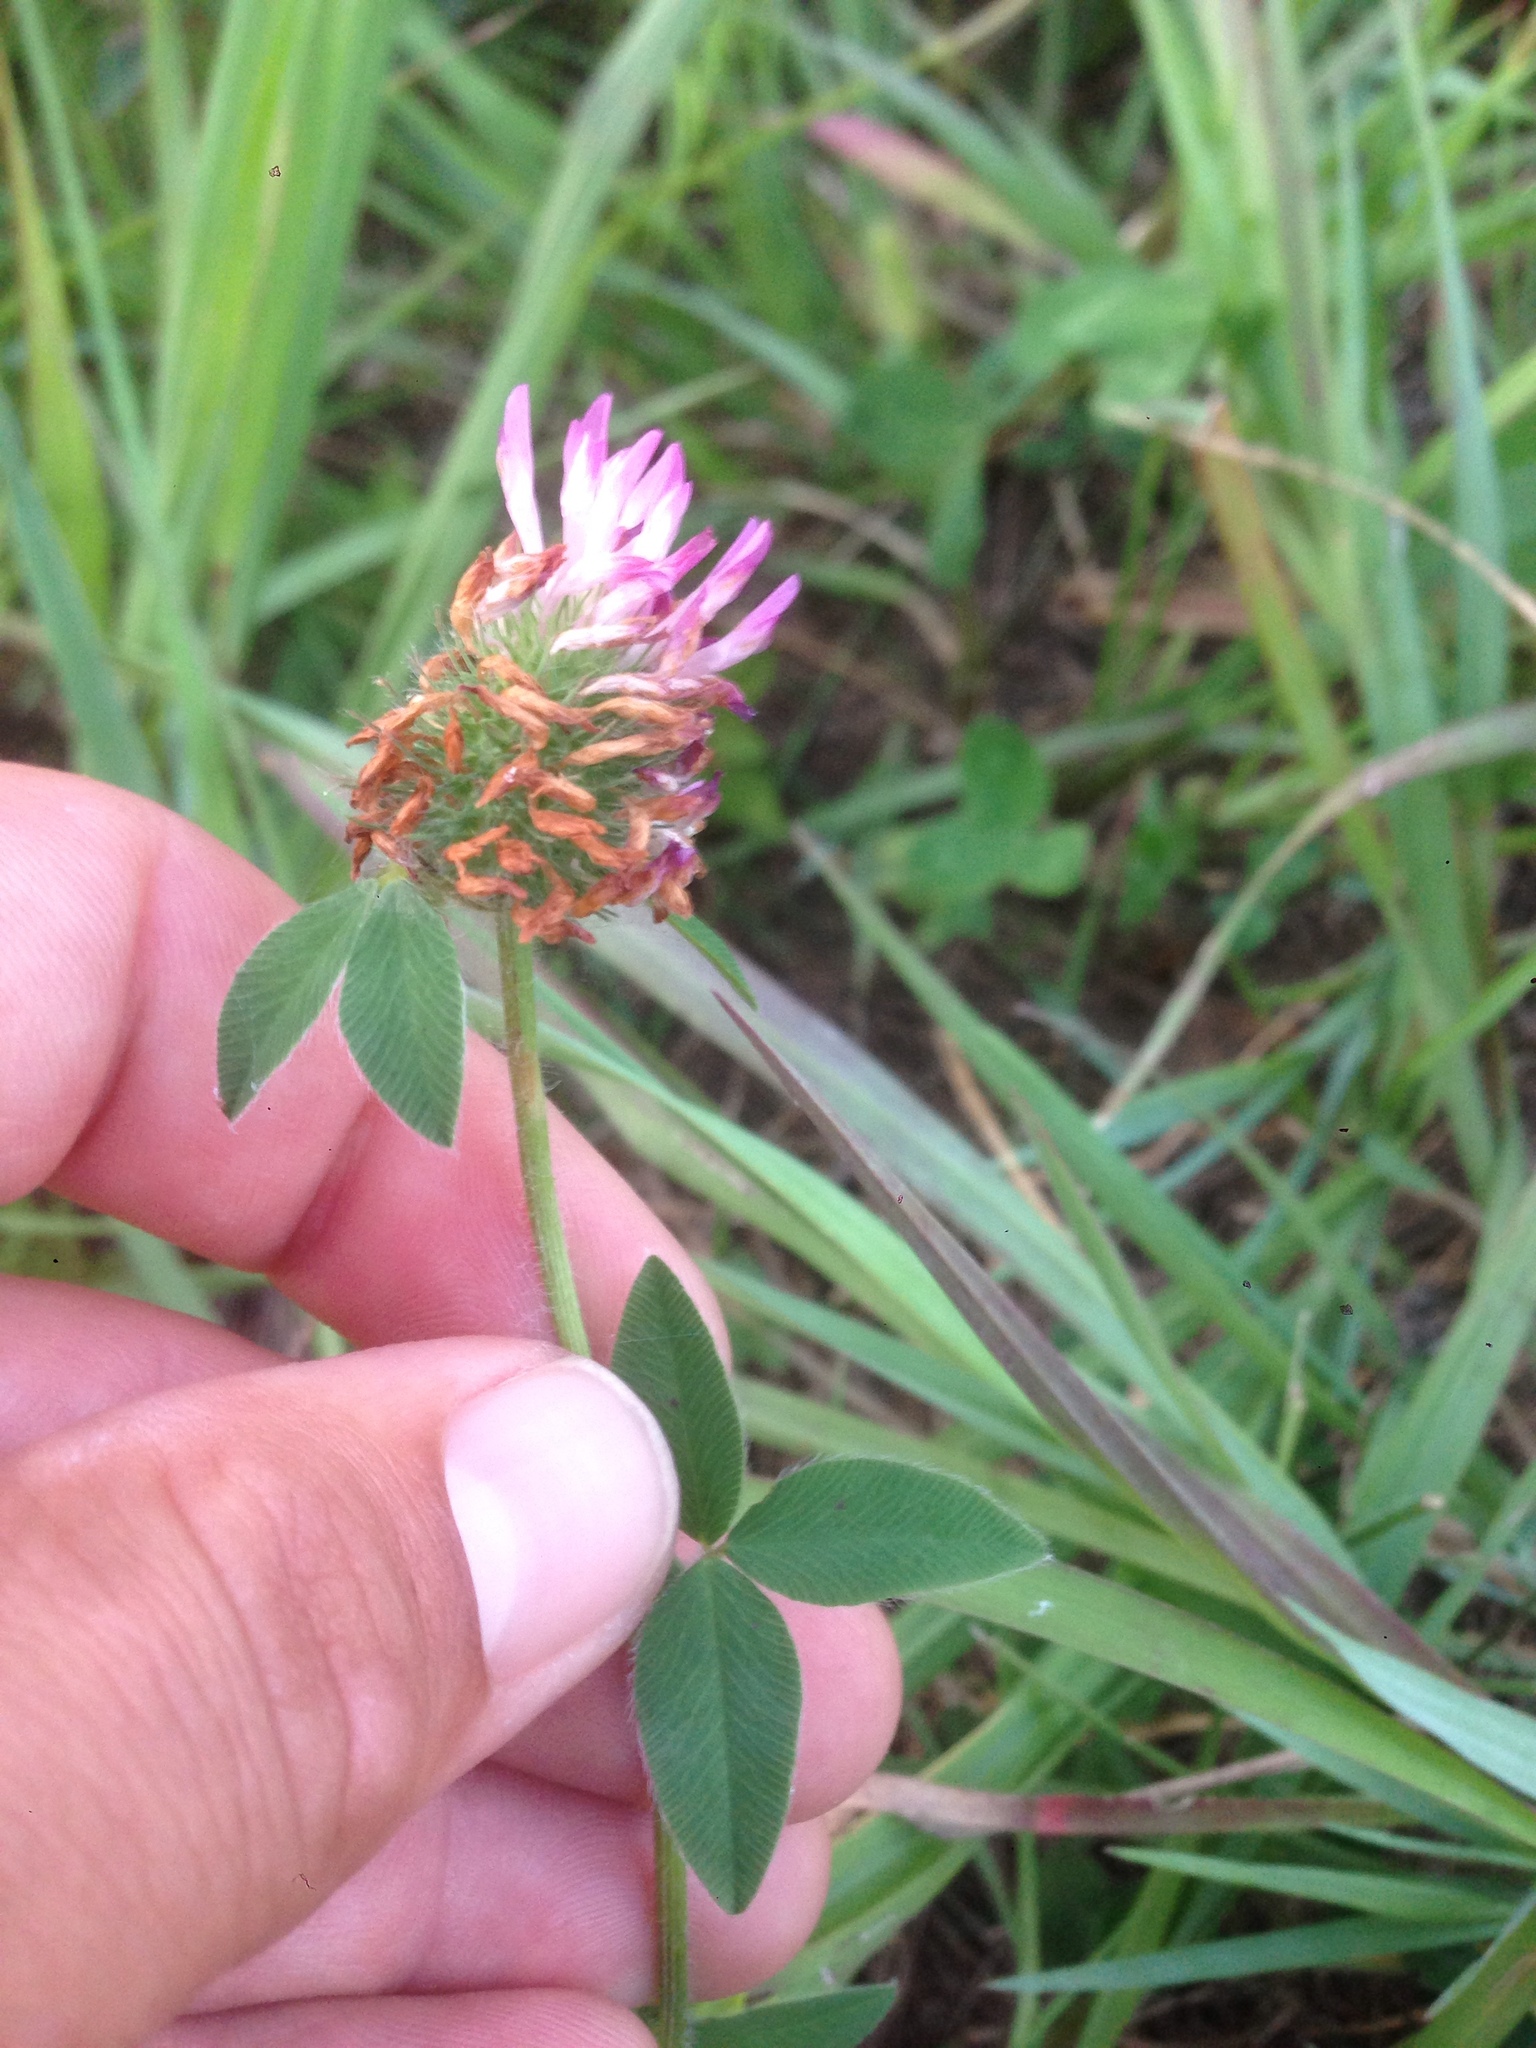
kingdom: Plantae
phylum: Tracheophyta
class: Magnoliopsida
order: Fabales
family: Fabaceae
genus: Trifolium
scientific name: Trifolium pratense
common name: Red clover
